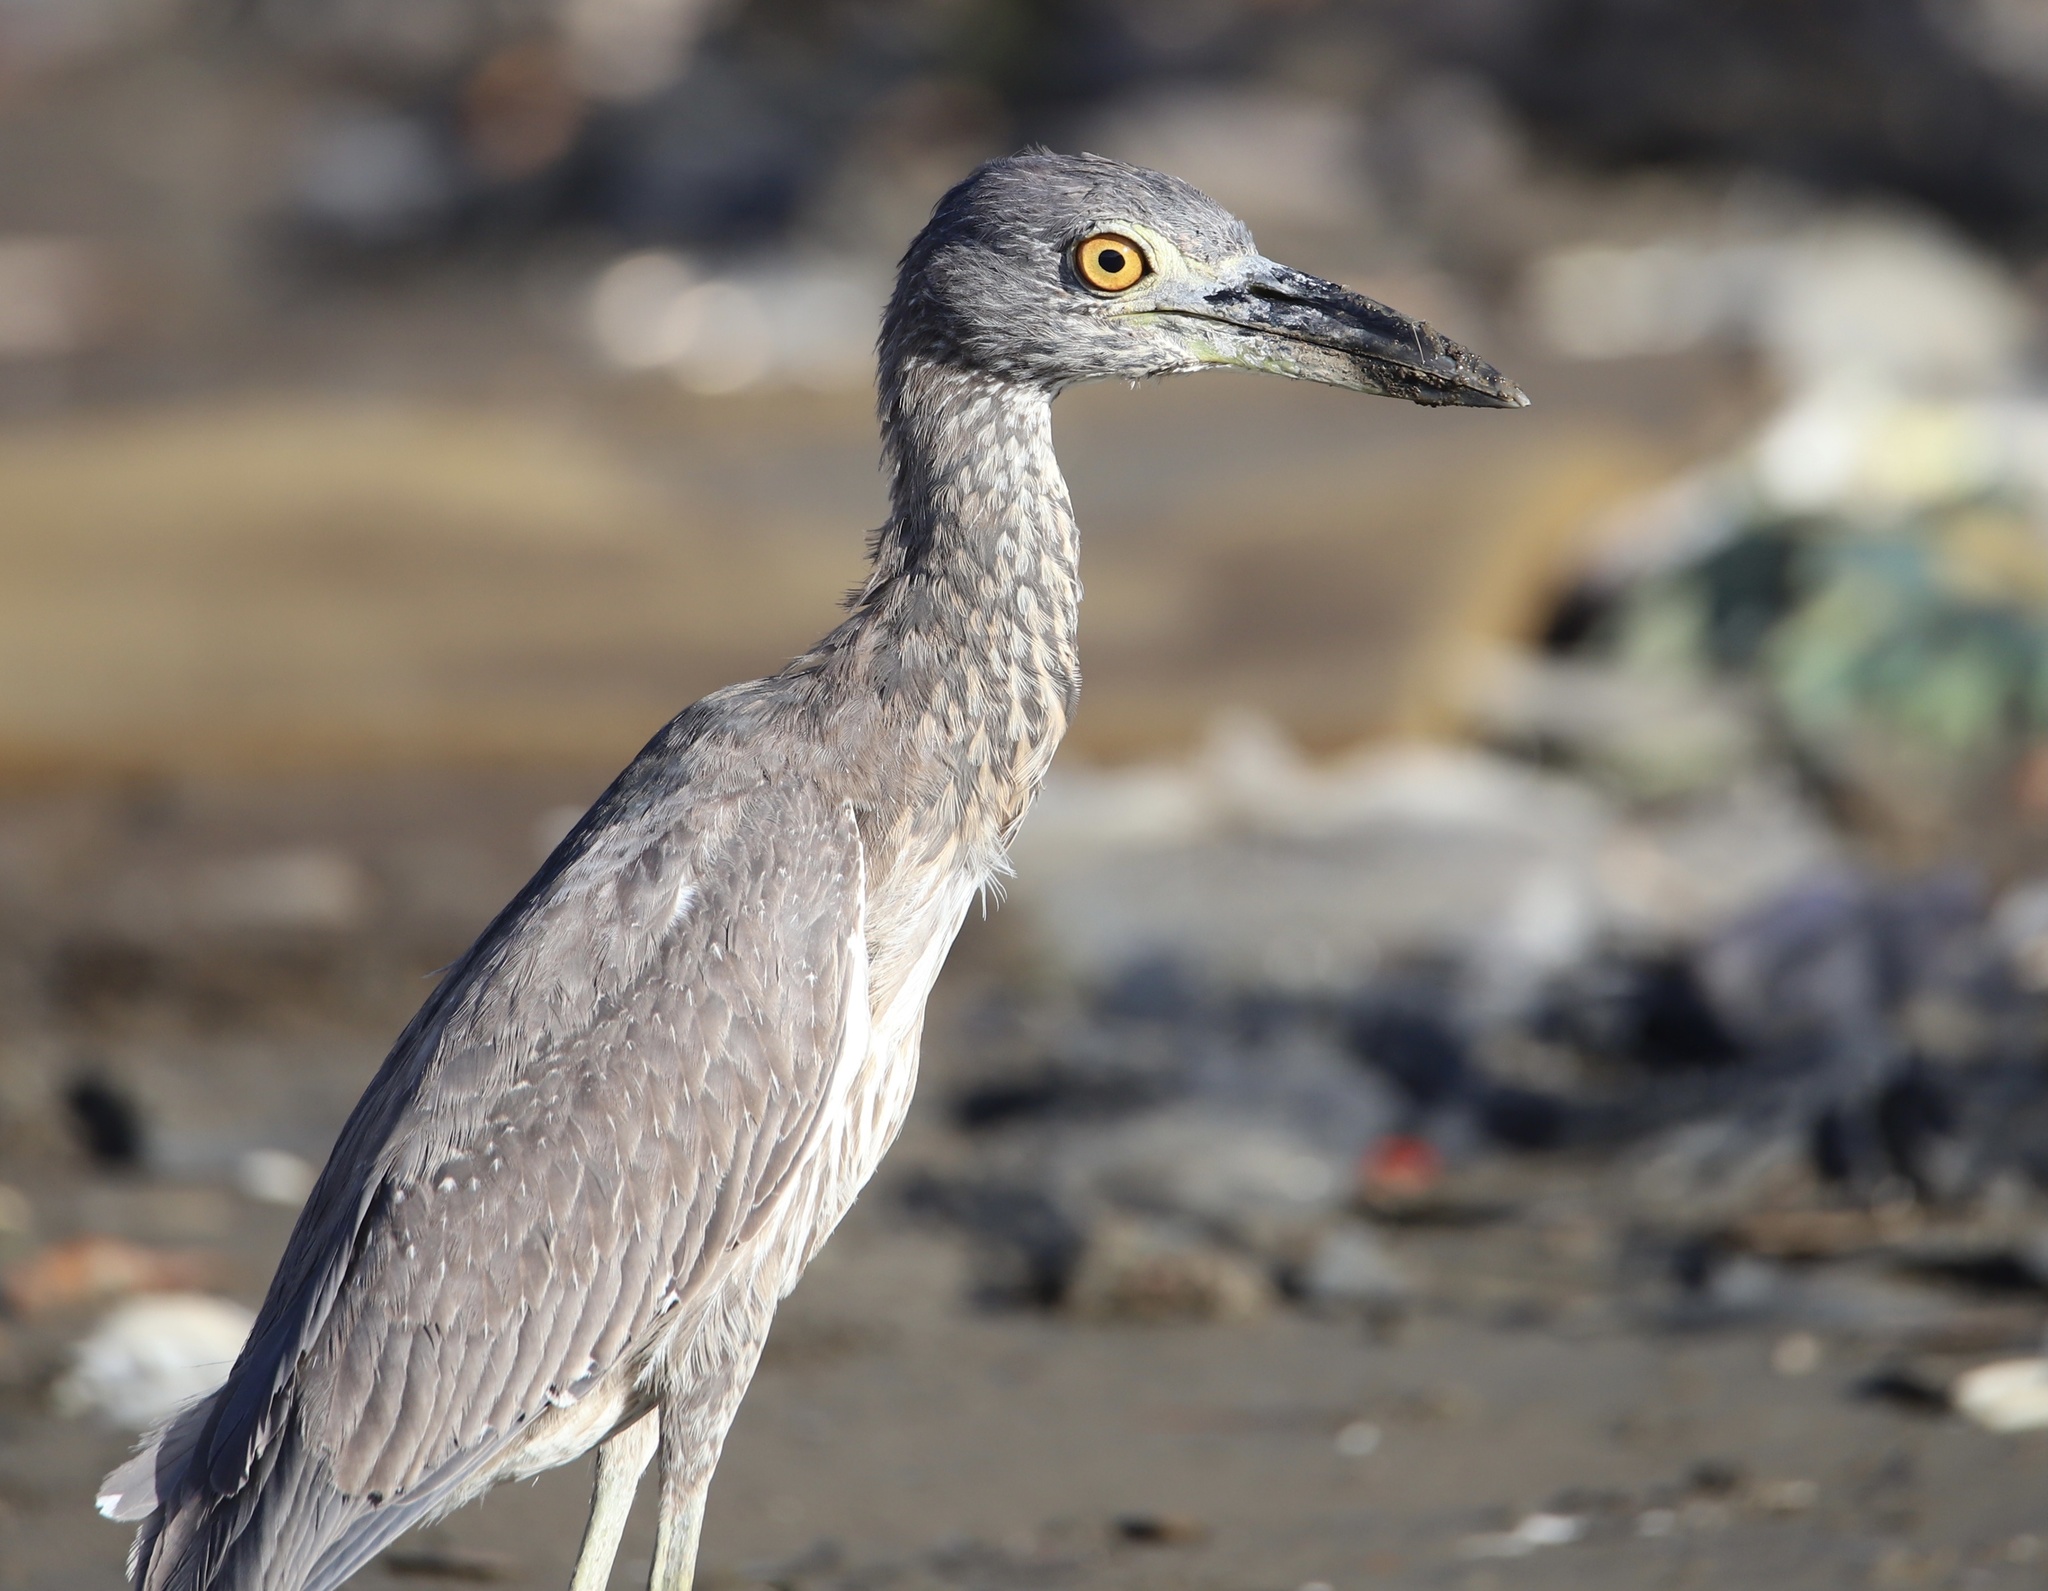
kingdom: Animalia
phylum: Chordata
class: Aves
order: Pelecaniformes
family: Ardeidae
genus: Nyctanassa
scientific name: Nyctanassa violacea
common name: Yellow-crowned night heron
